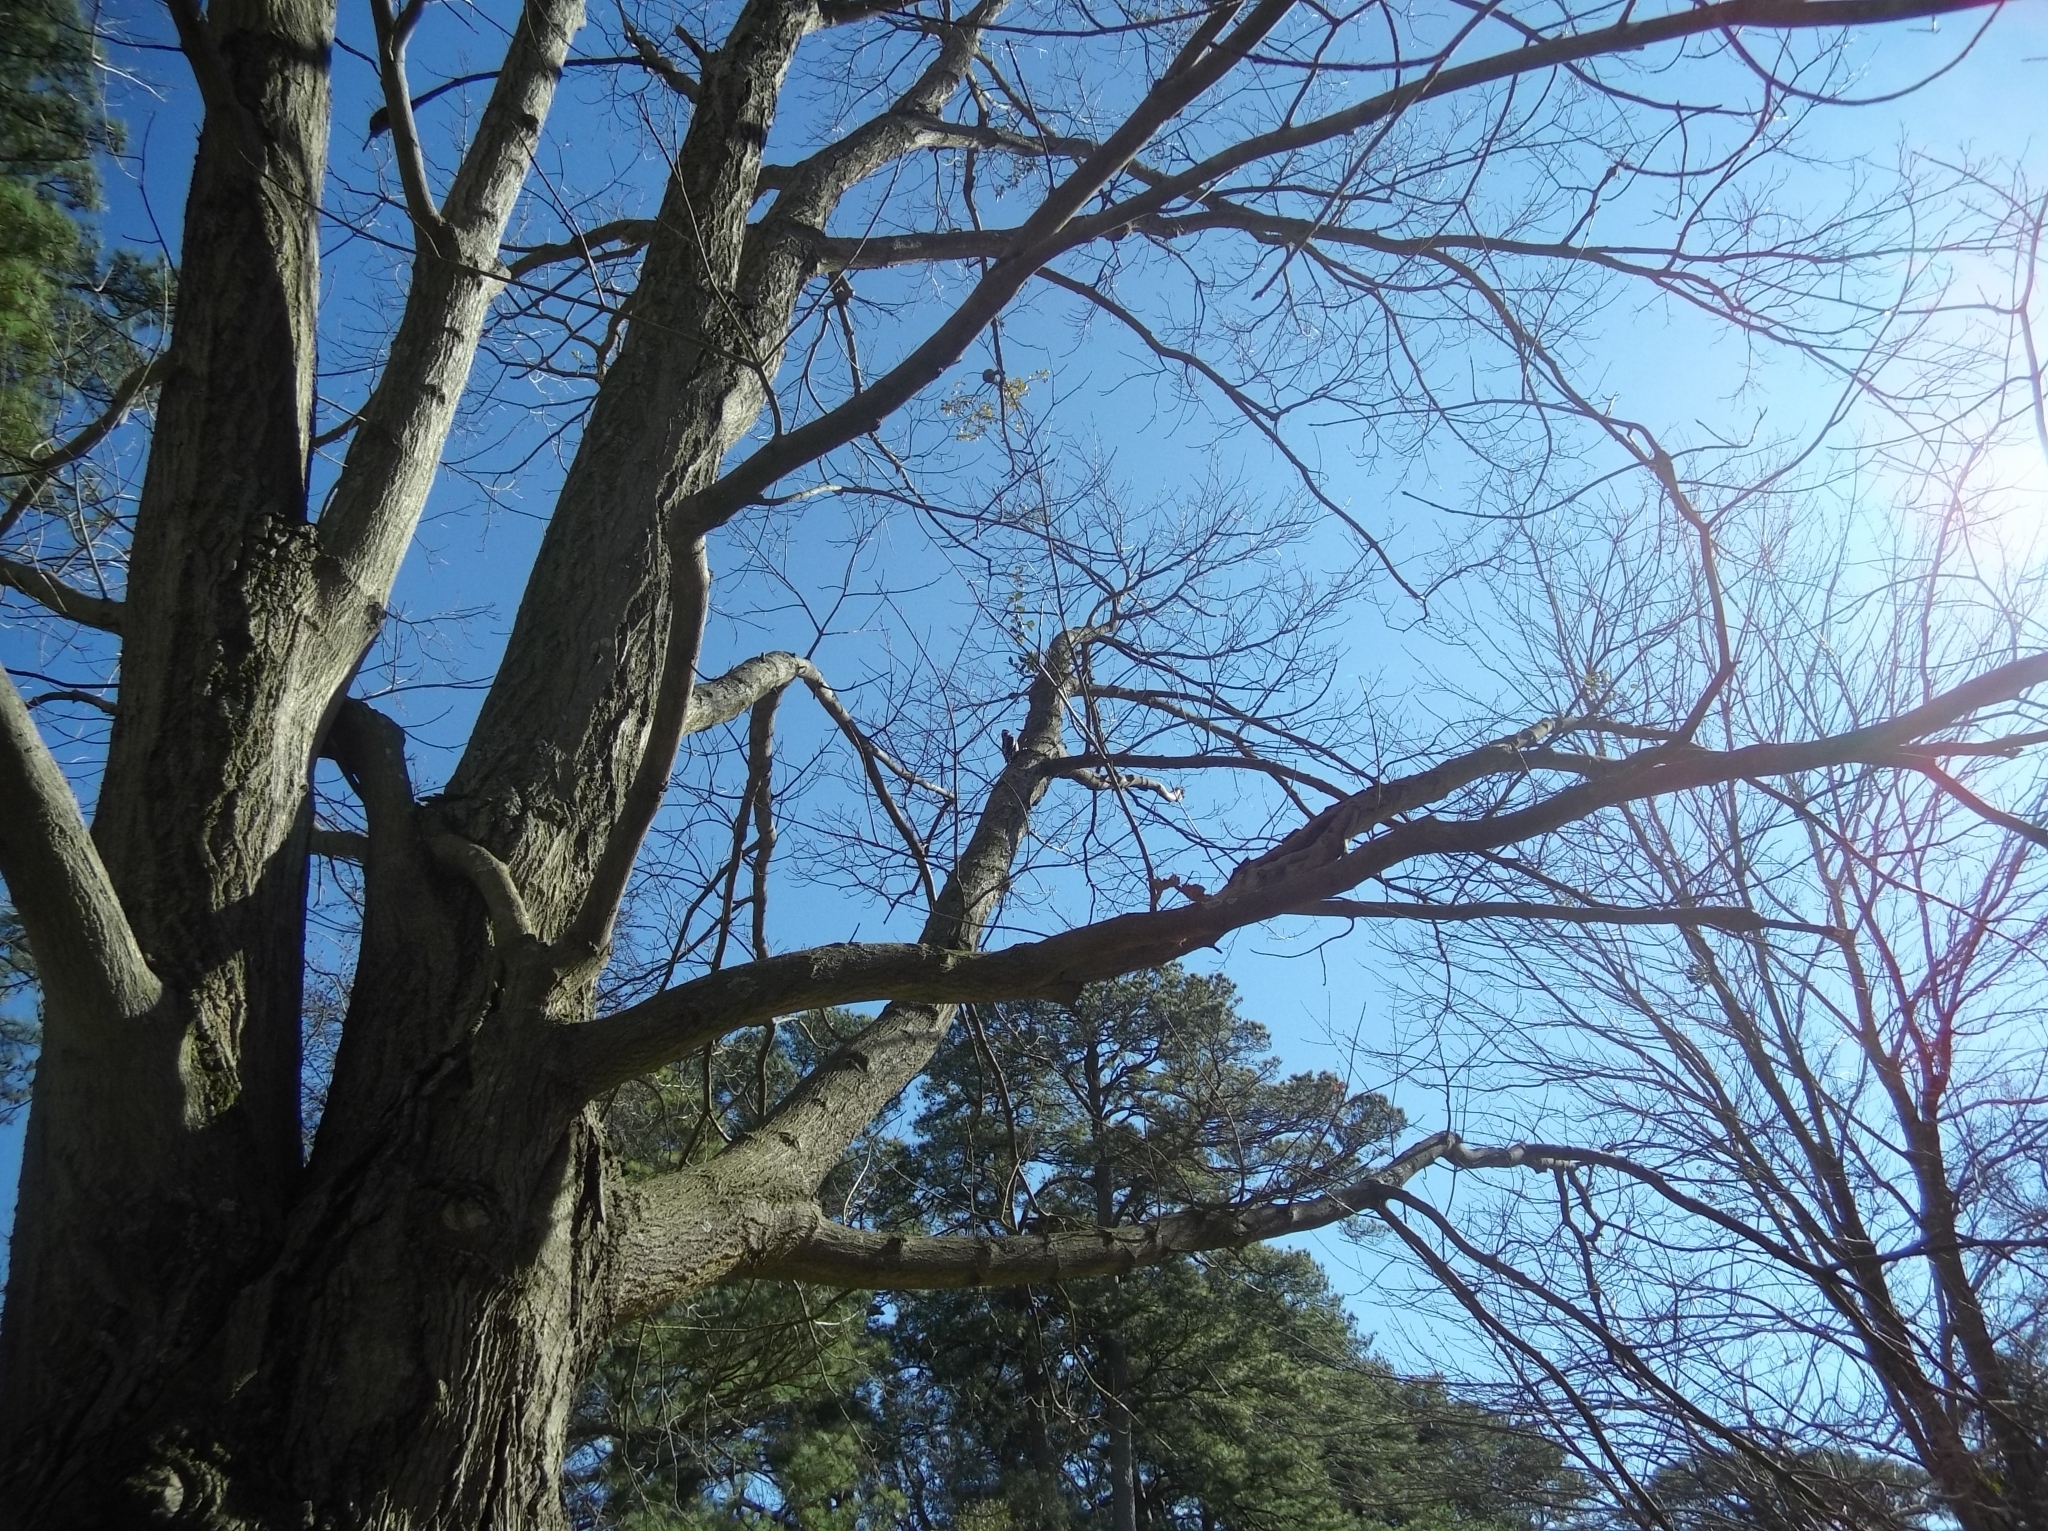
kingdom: Animalia
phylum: Chordata
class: Aves
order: Piciformes
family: Picidae
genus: Sphyrapicus
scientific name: Sphyrapicus varius
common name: Yellow-bellied sapsucker
